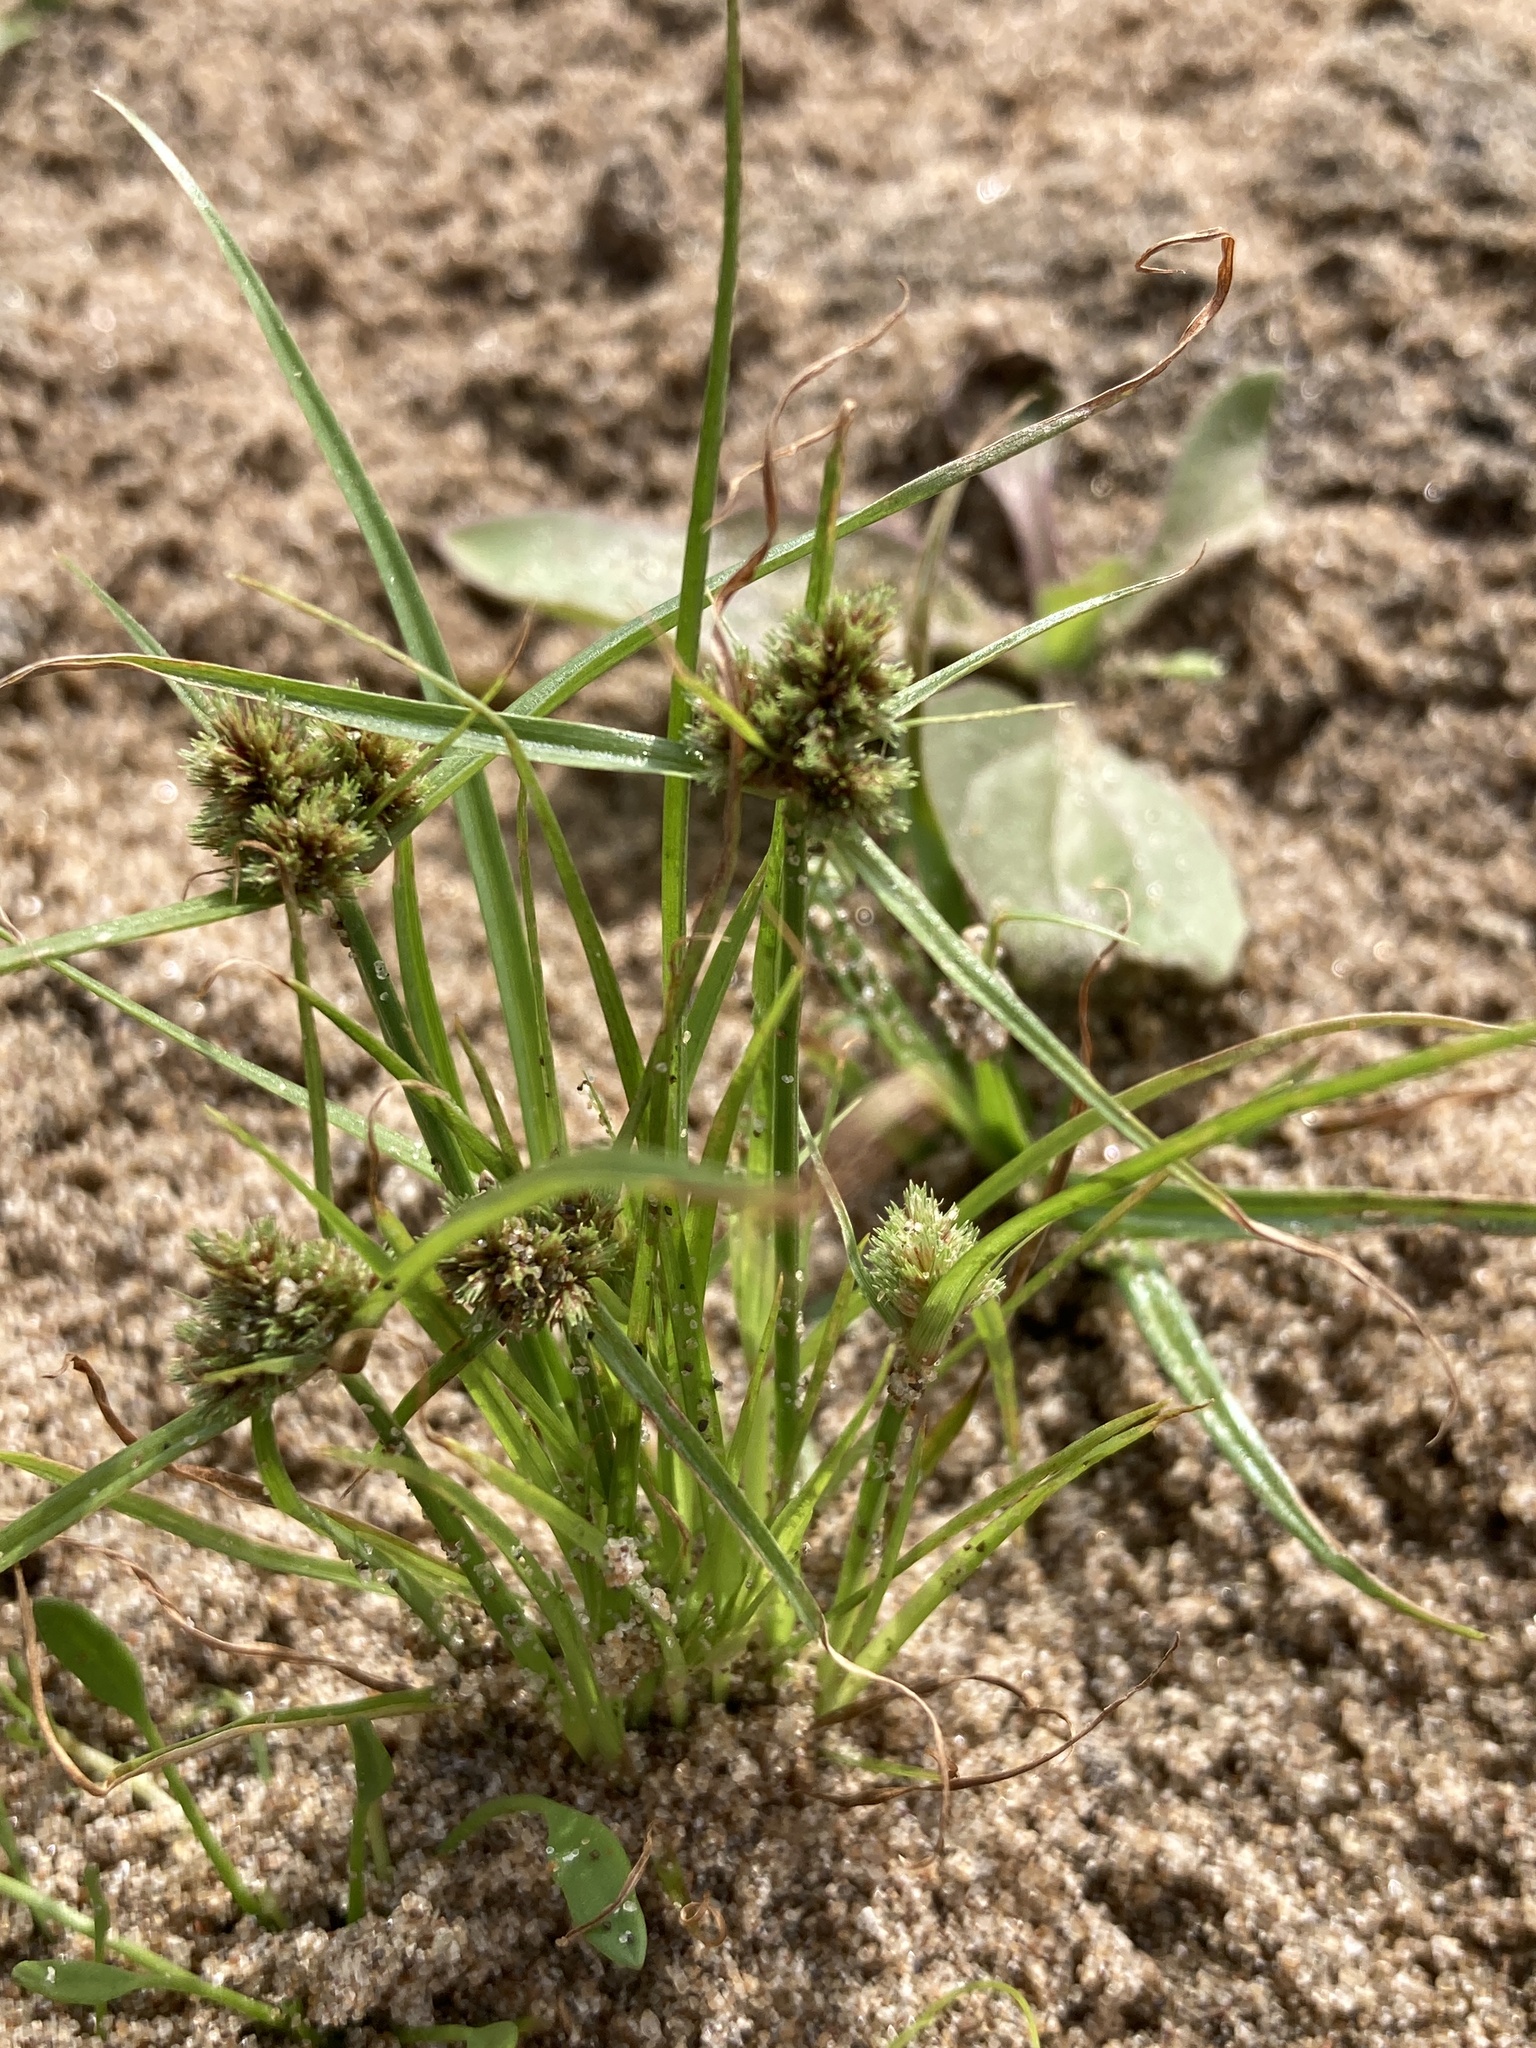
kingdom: Plantae
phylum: Tracheophyta
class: Liliopsida
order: Poales
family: Cyperaceae
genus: Cyperus
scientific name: Cyperus michelianus
